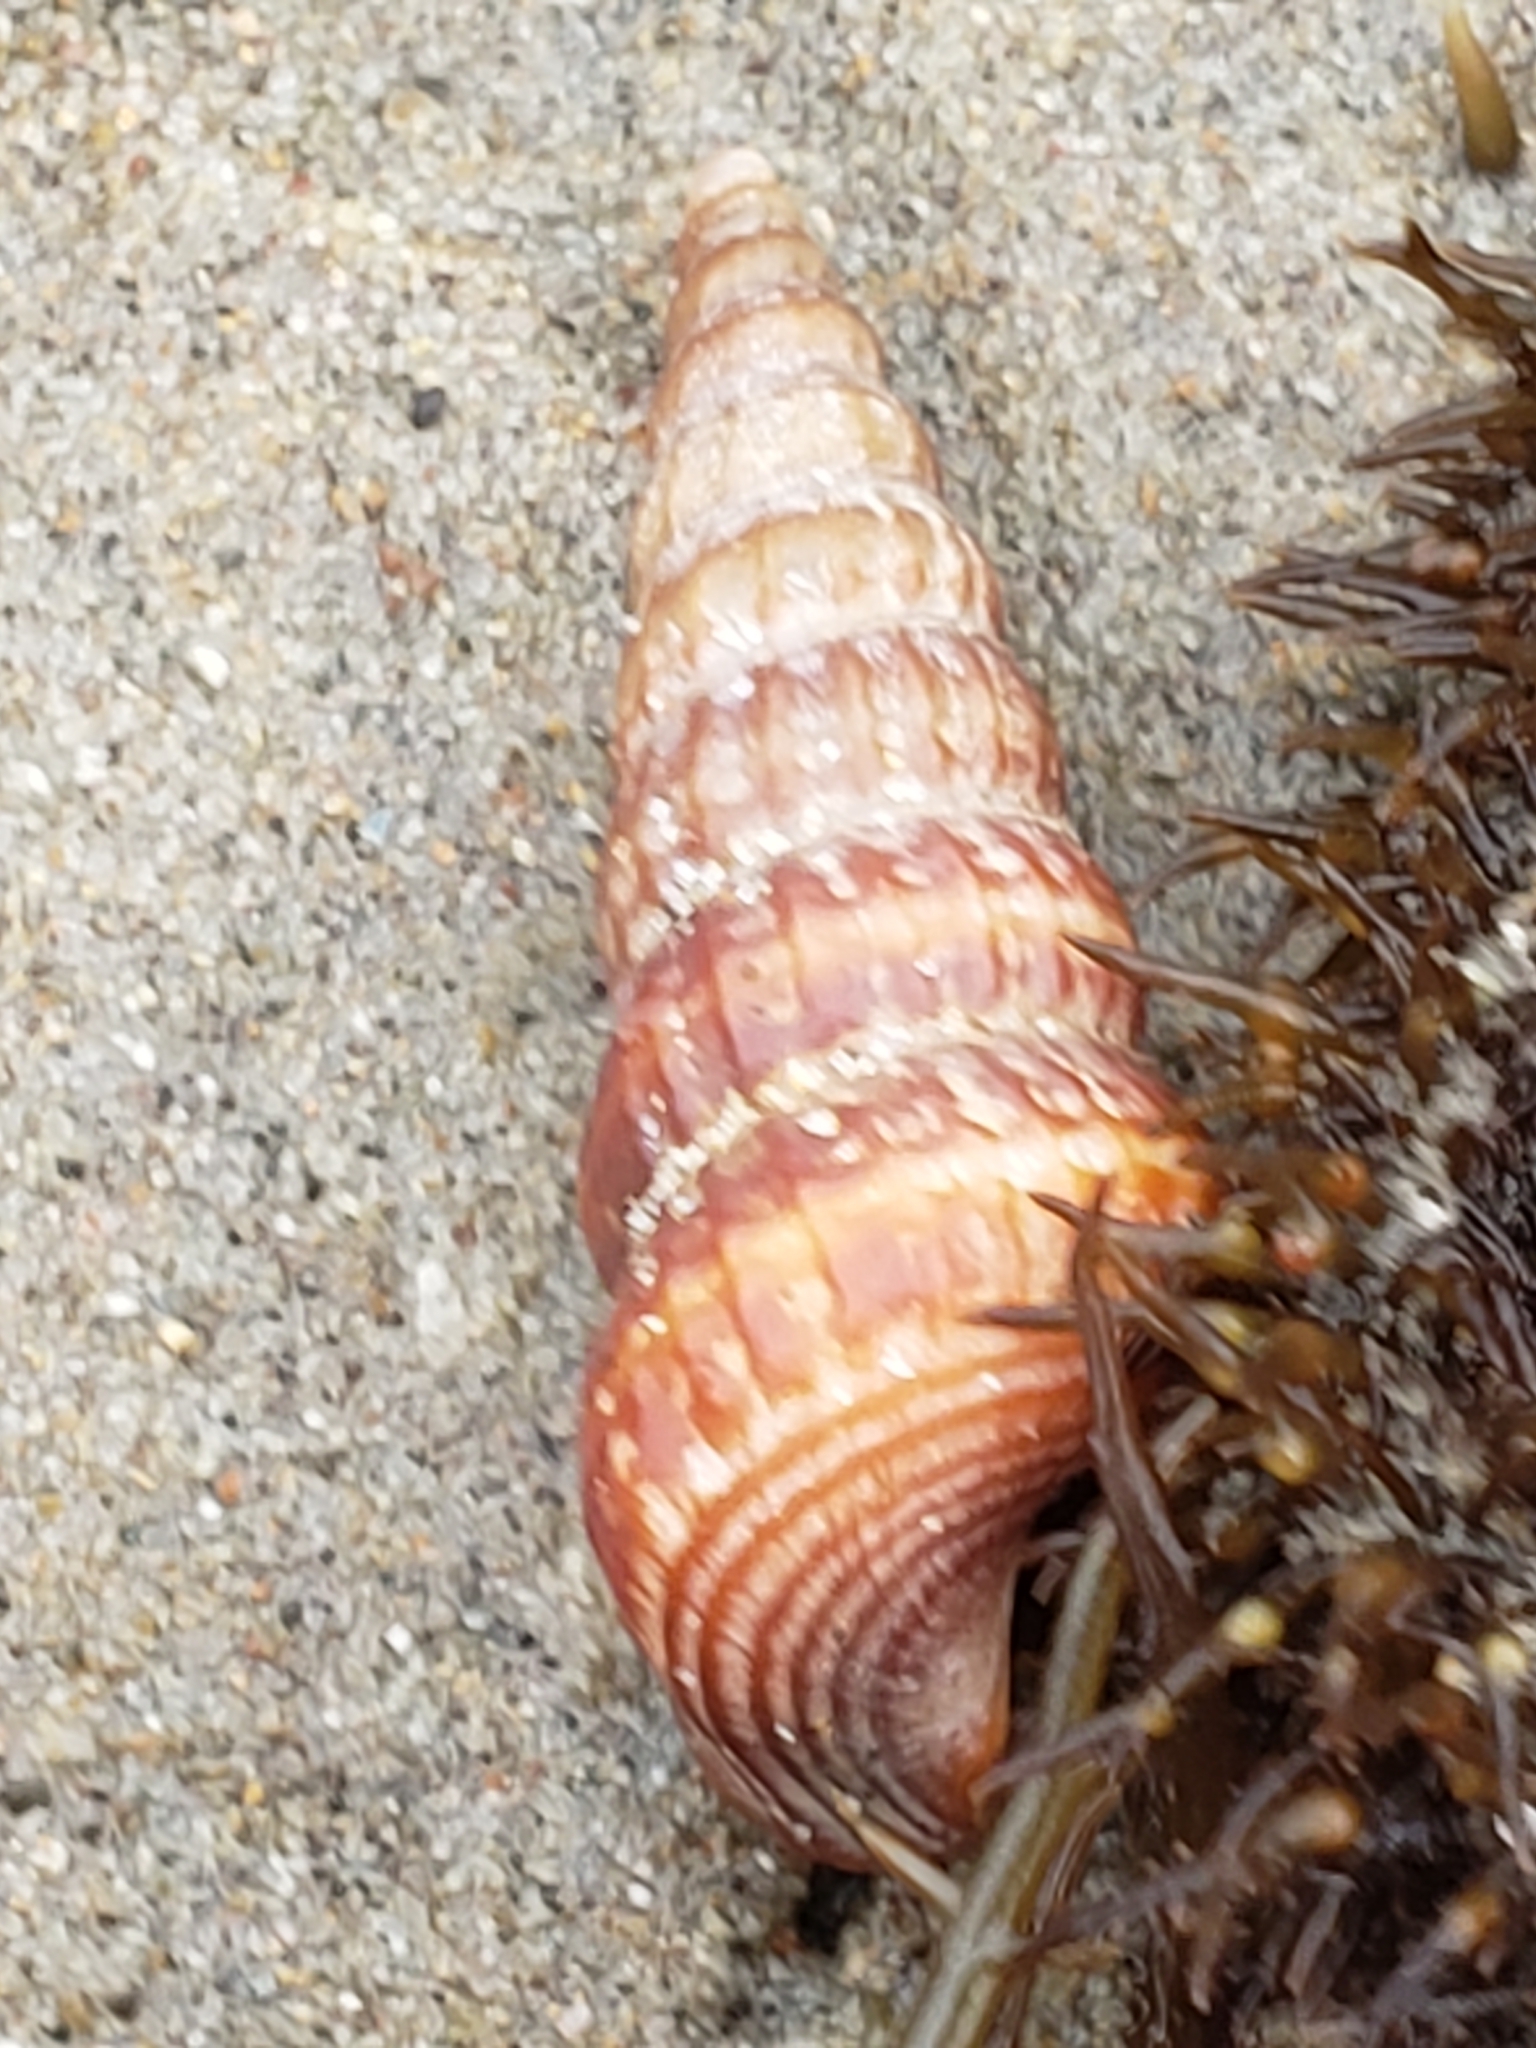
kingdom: Animalia
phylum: Mollusca
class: Gastropoda
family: Potamididae
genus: Cerithideopsis
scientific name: Cerithideopsis californica
